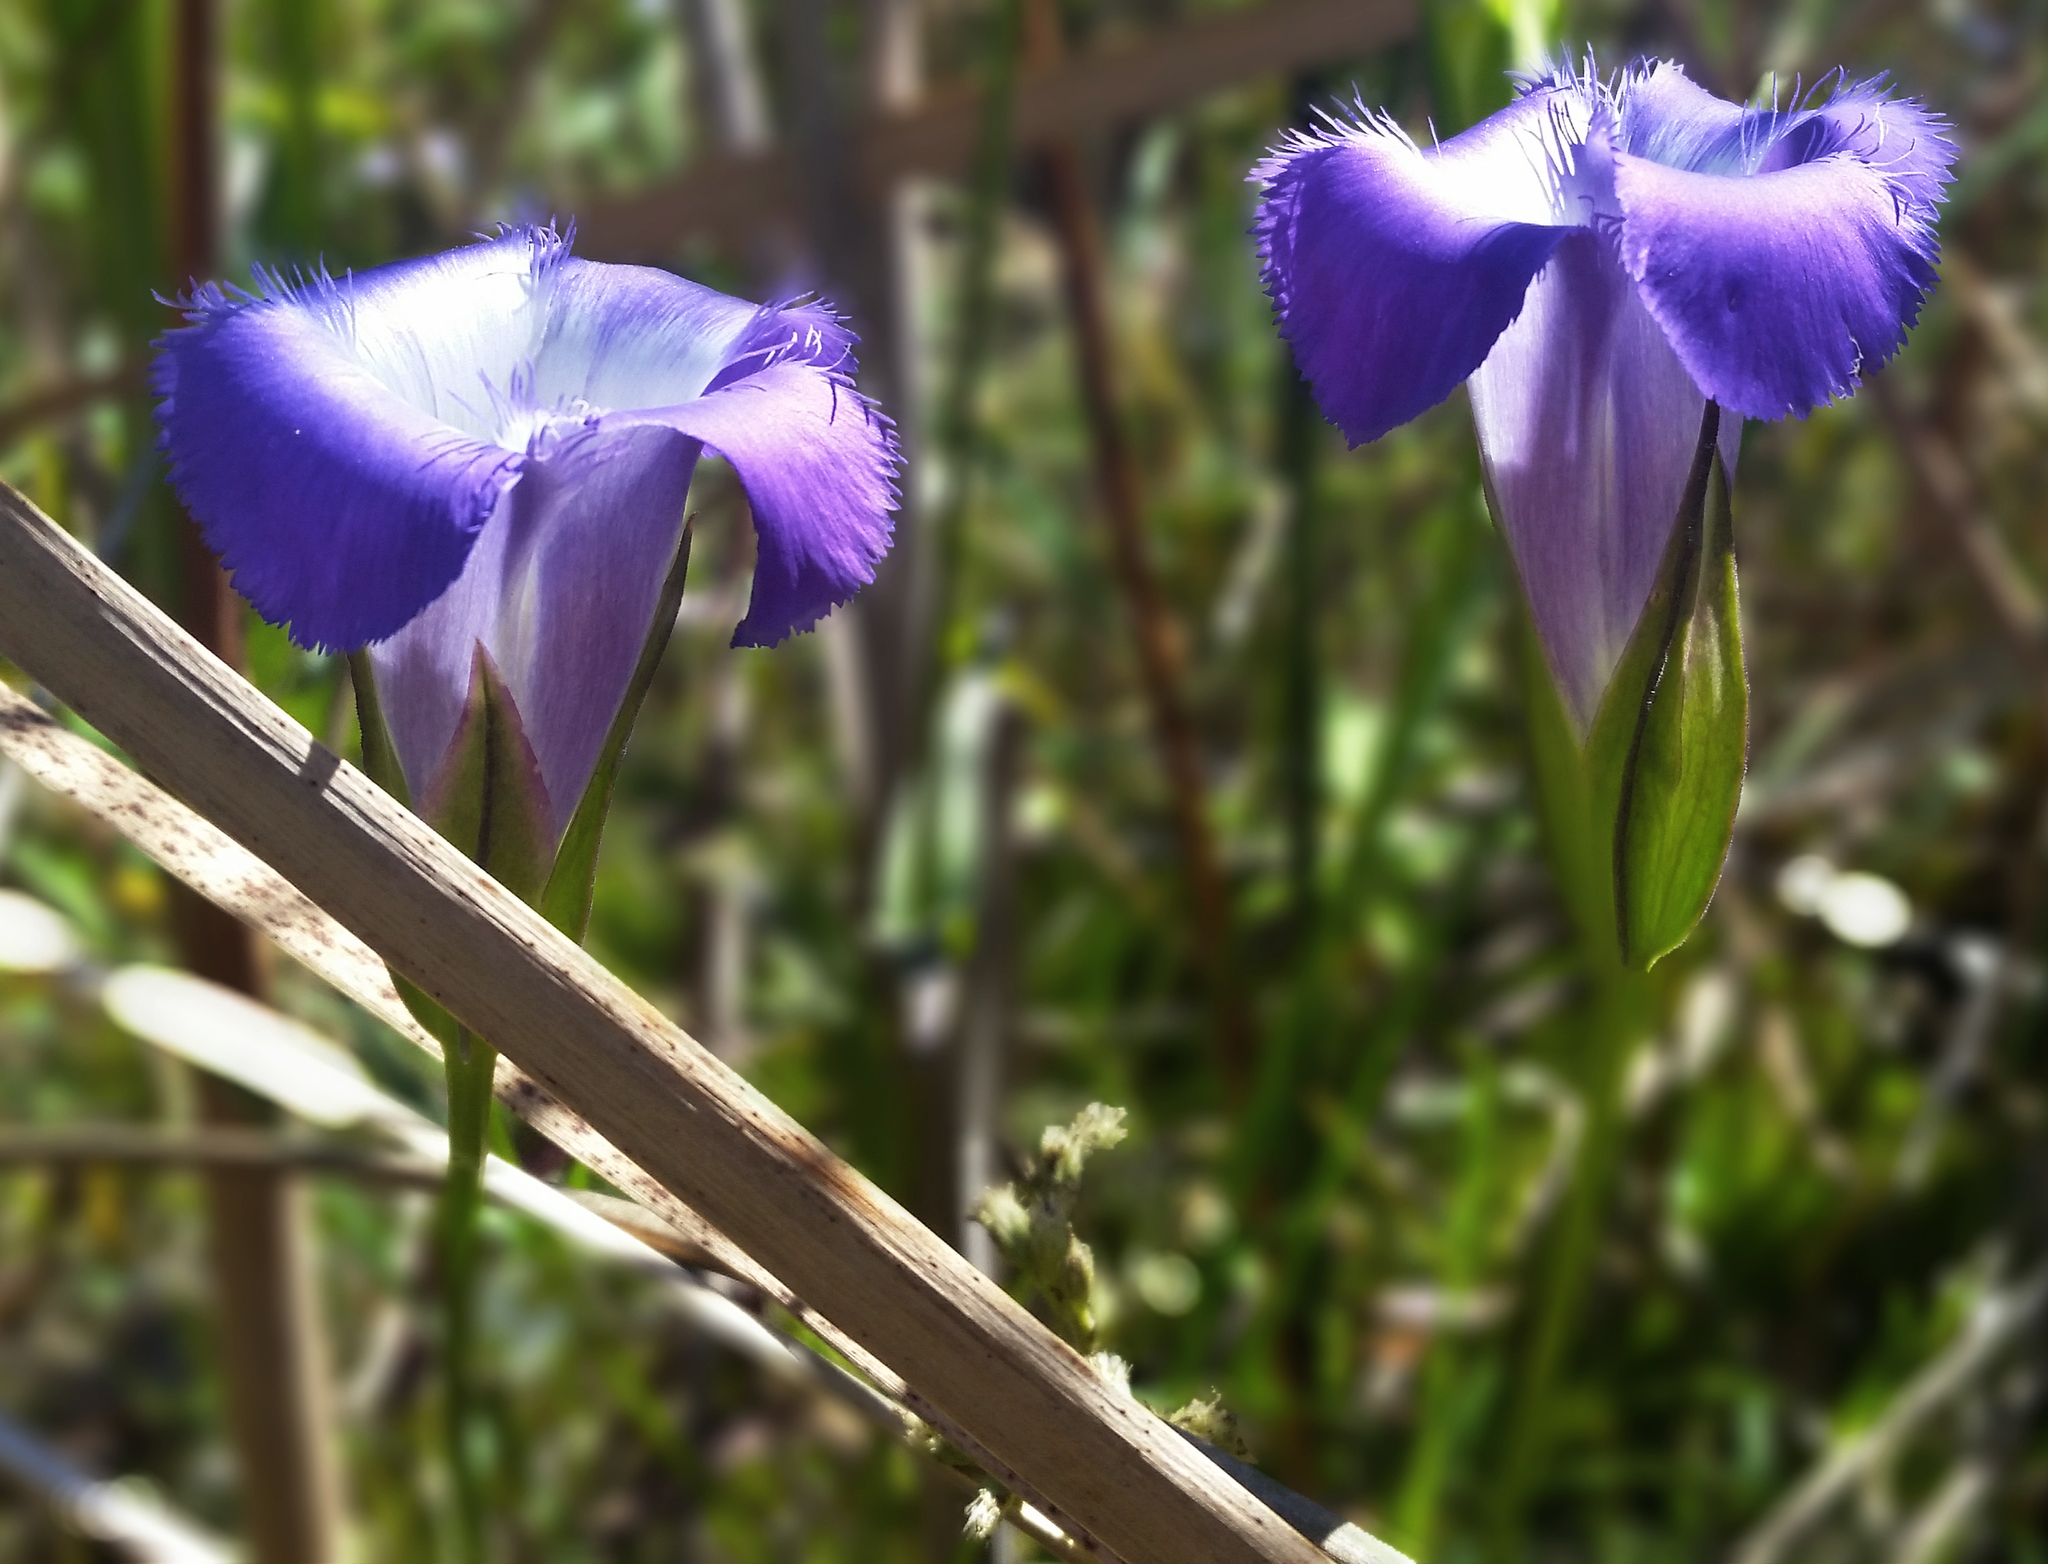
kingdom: Plantae
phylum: Tracheophyta
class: Magnoliopsida
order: Gentianales
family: Gentianaceae
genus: Gentianopsis
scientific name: Gentianopsis virgata
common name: Lesser fringed-gentian
